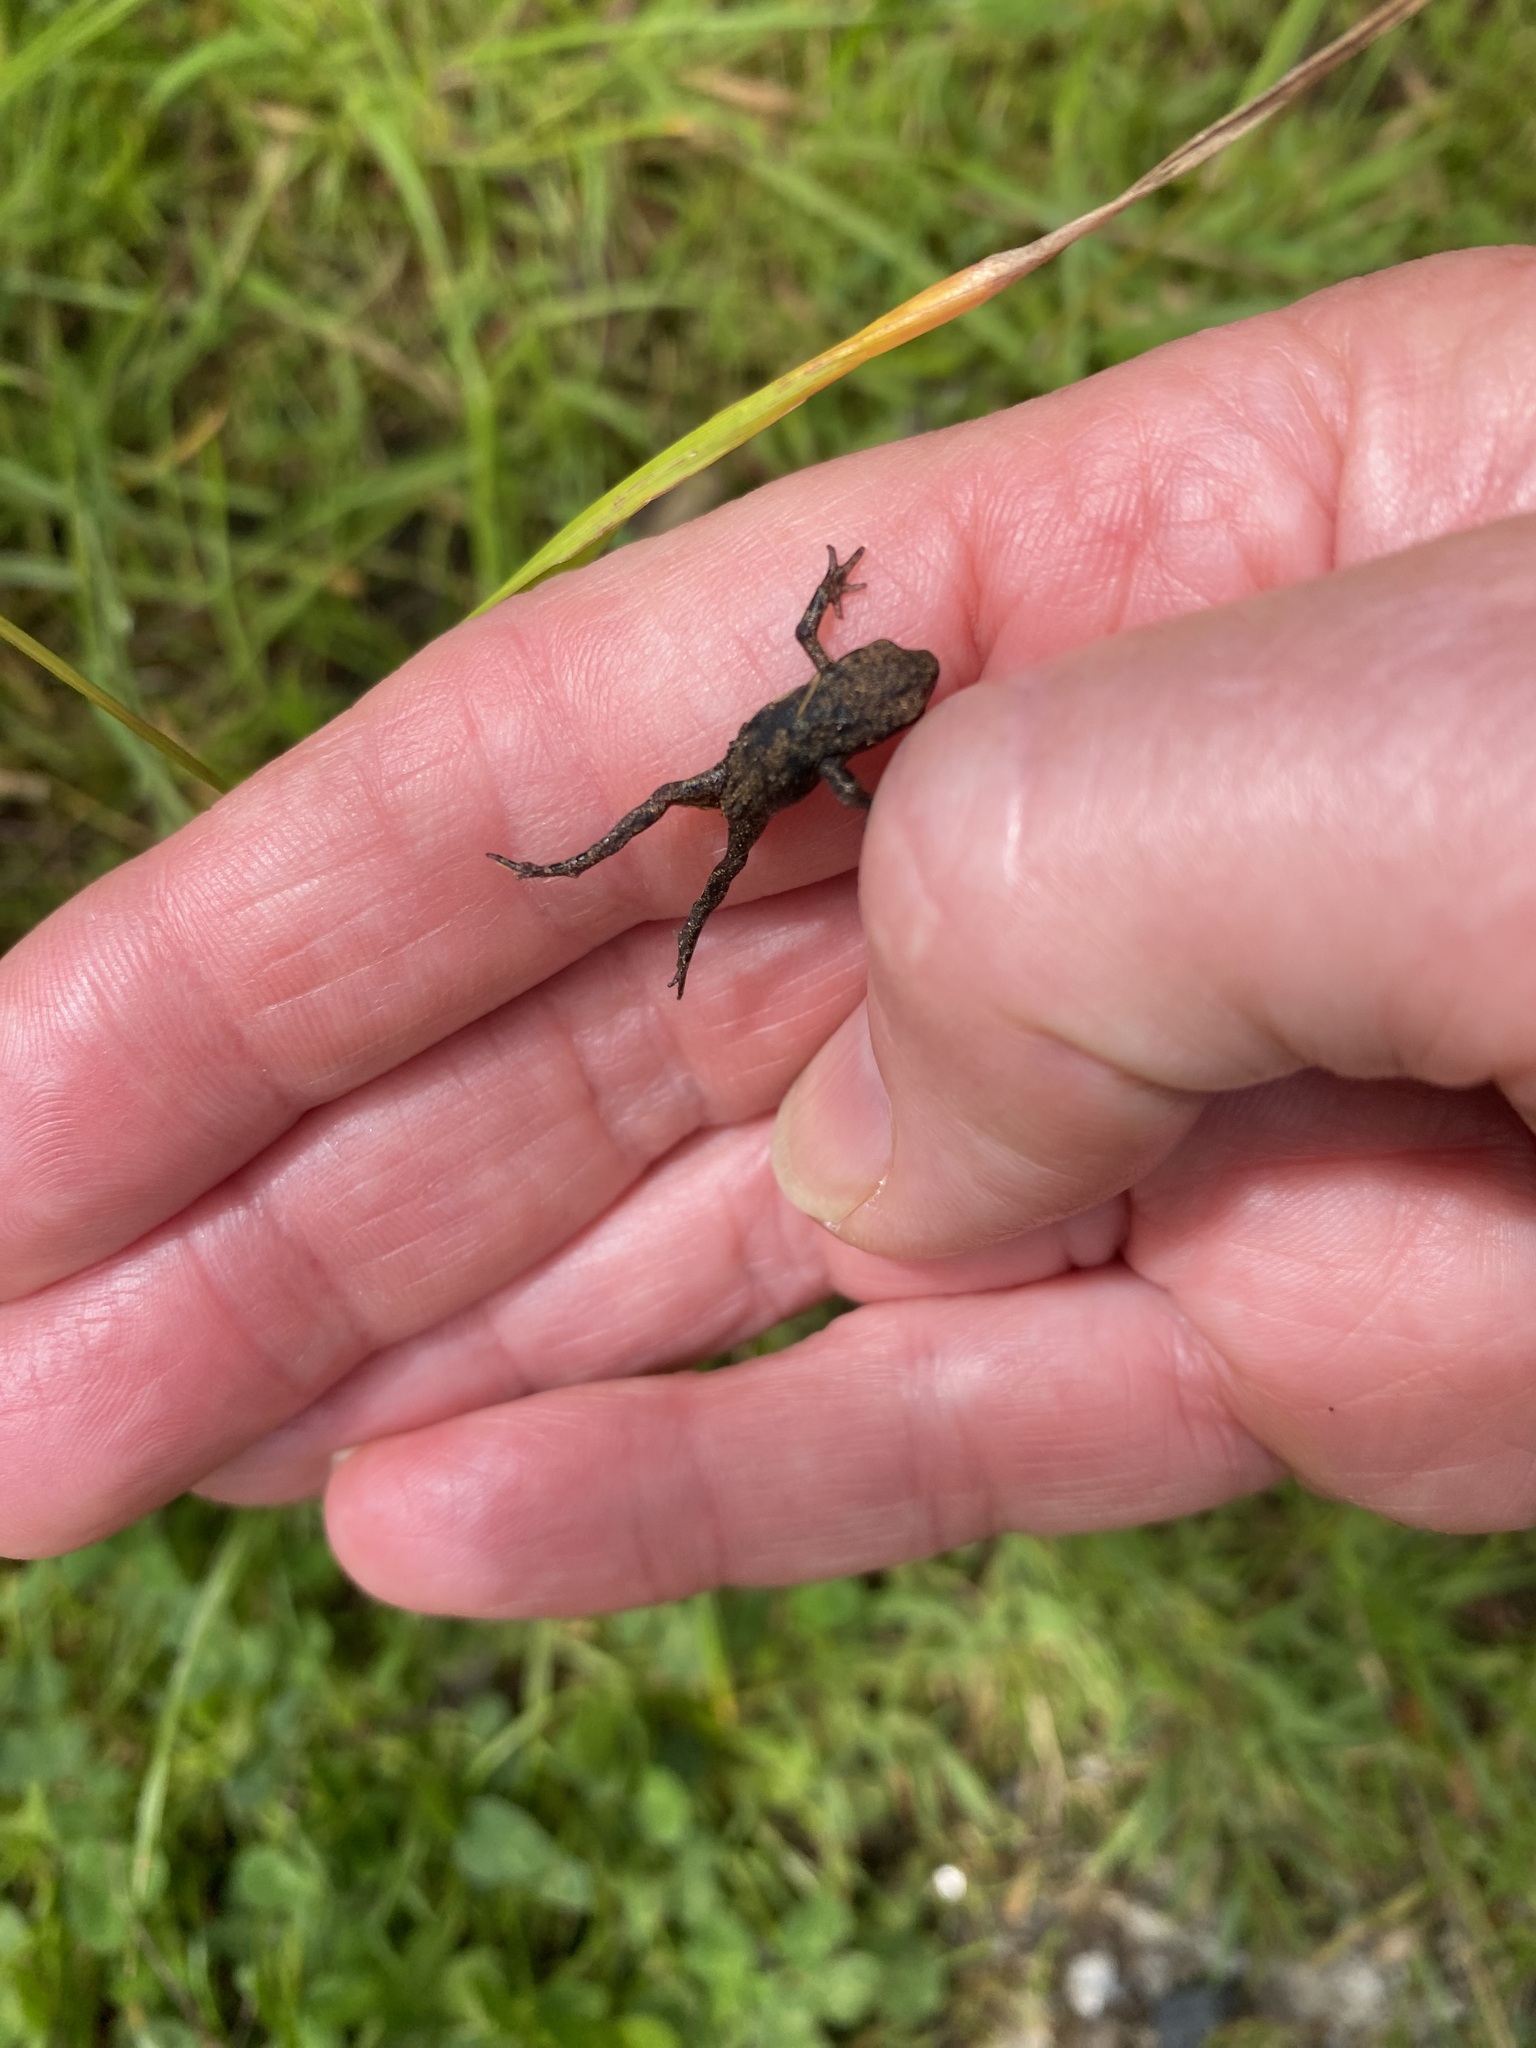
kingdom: Animalia
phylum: Chordata
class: Amphibia
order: Anura
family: Bufonidae
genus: Bufo
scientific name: Bufo bufo
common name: Common toad
